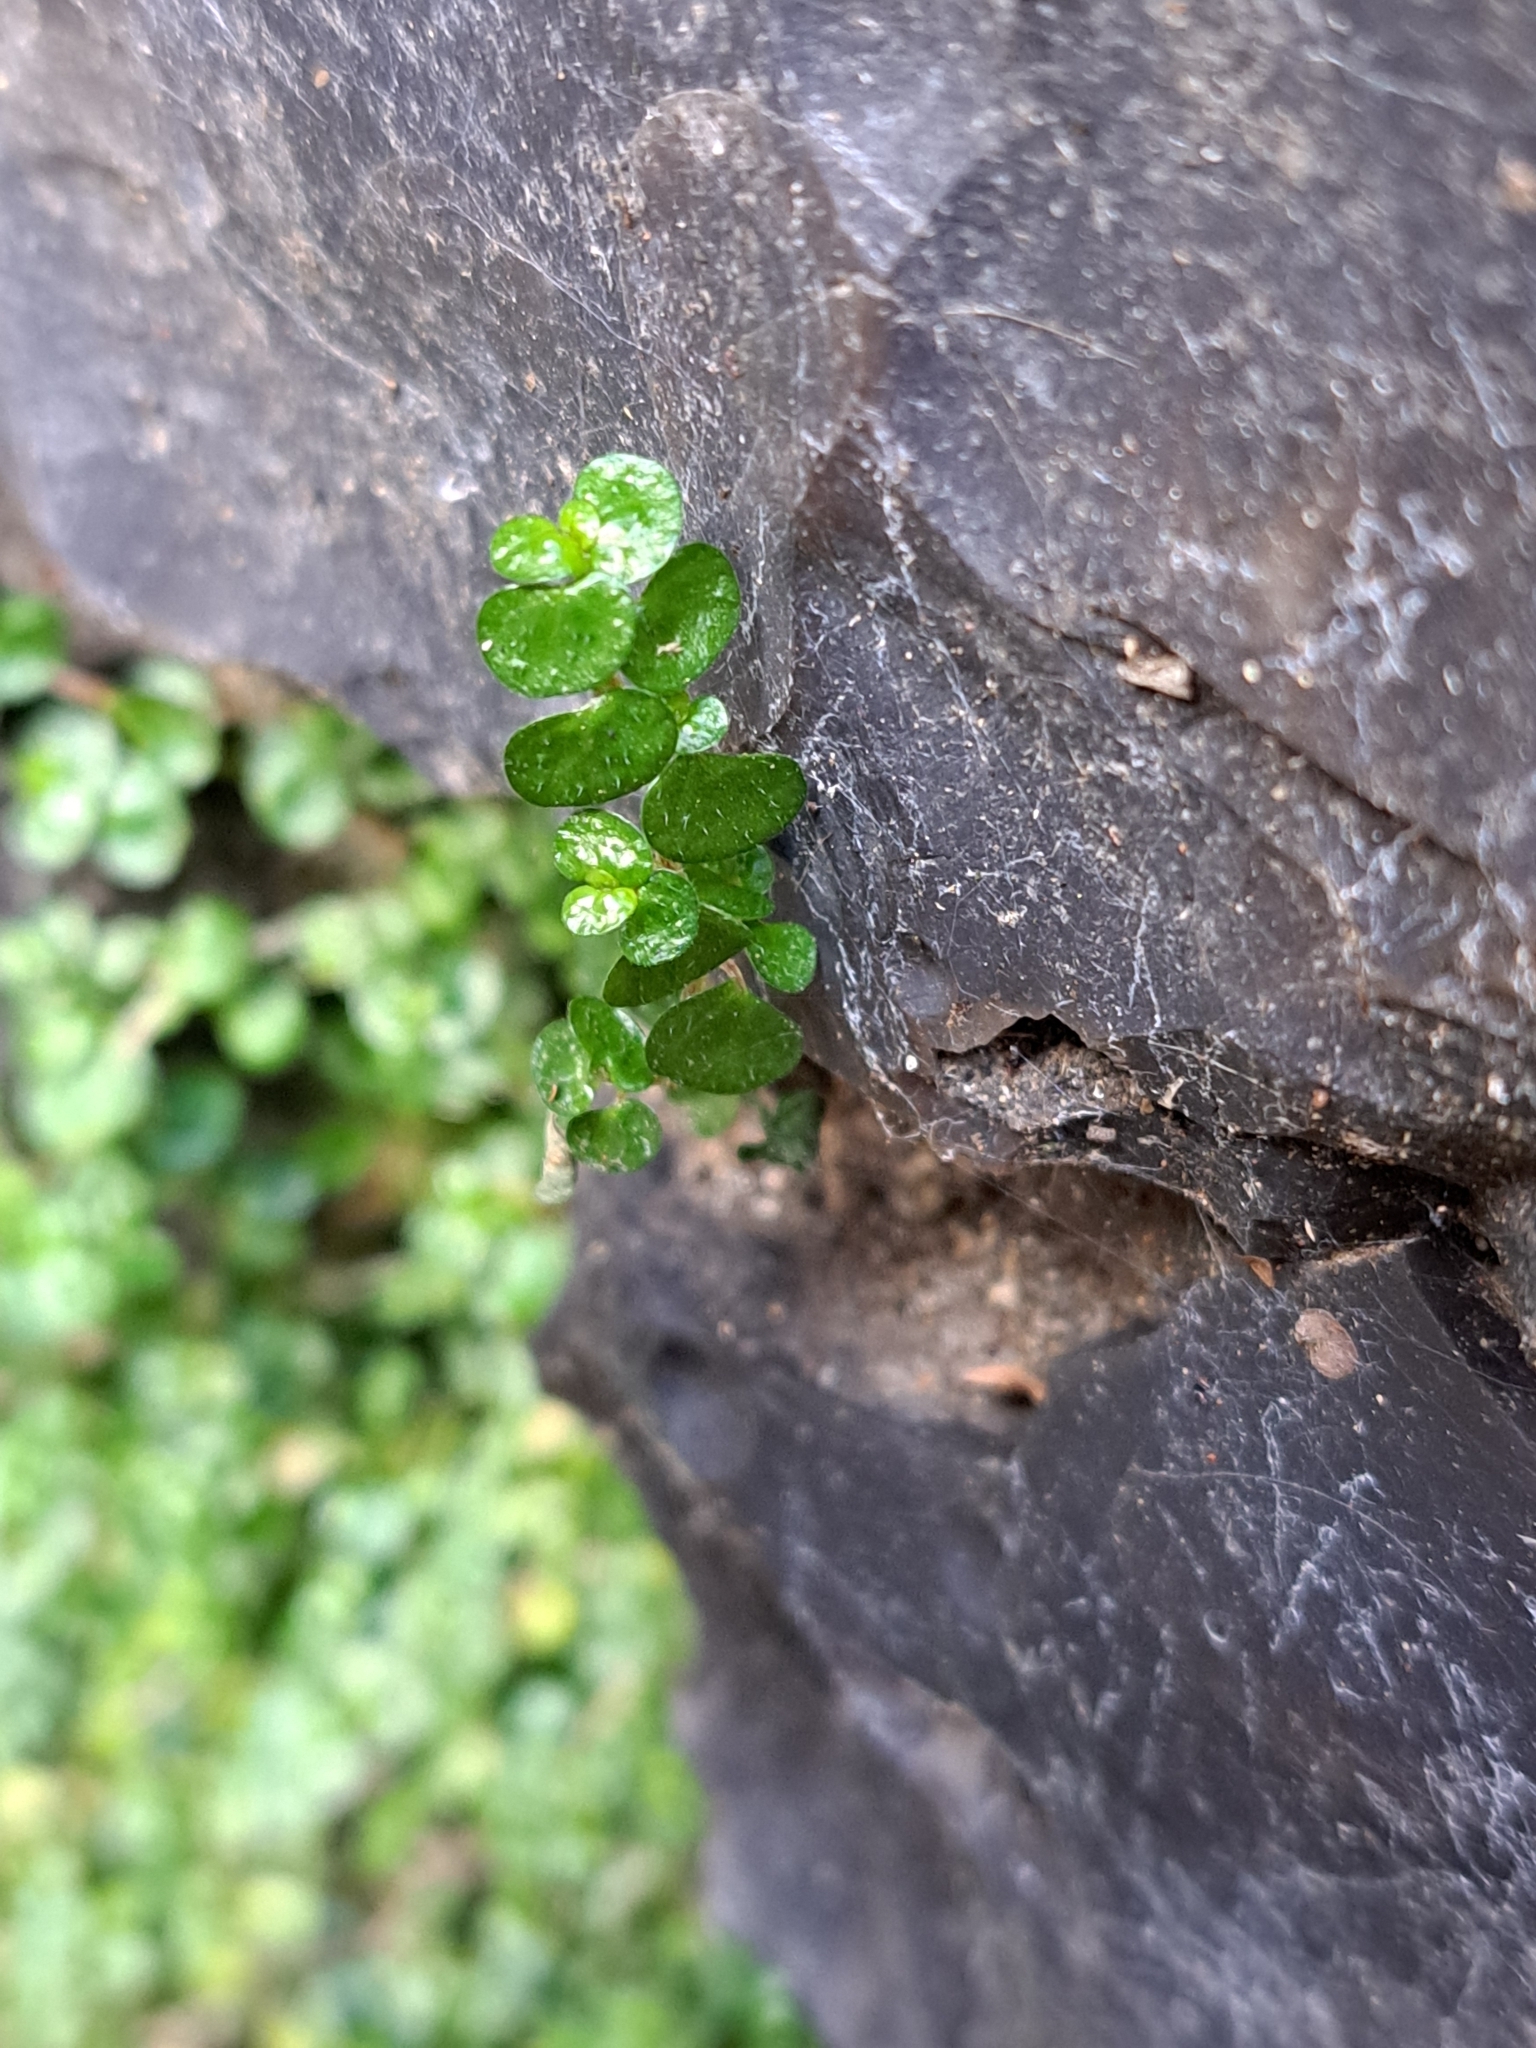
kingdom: Plantae
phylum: Tracheophyta
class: Magnoliopsida
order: Rosales
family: Urticaceae
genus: Soleirolia
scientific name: Soleirolia soleirolii
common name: Mind-your-own-business
